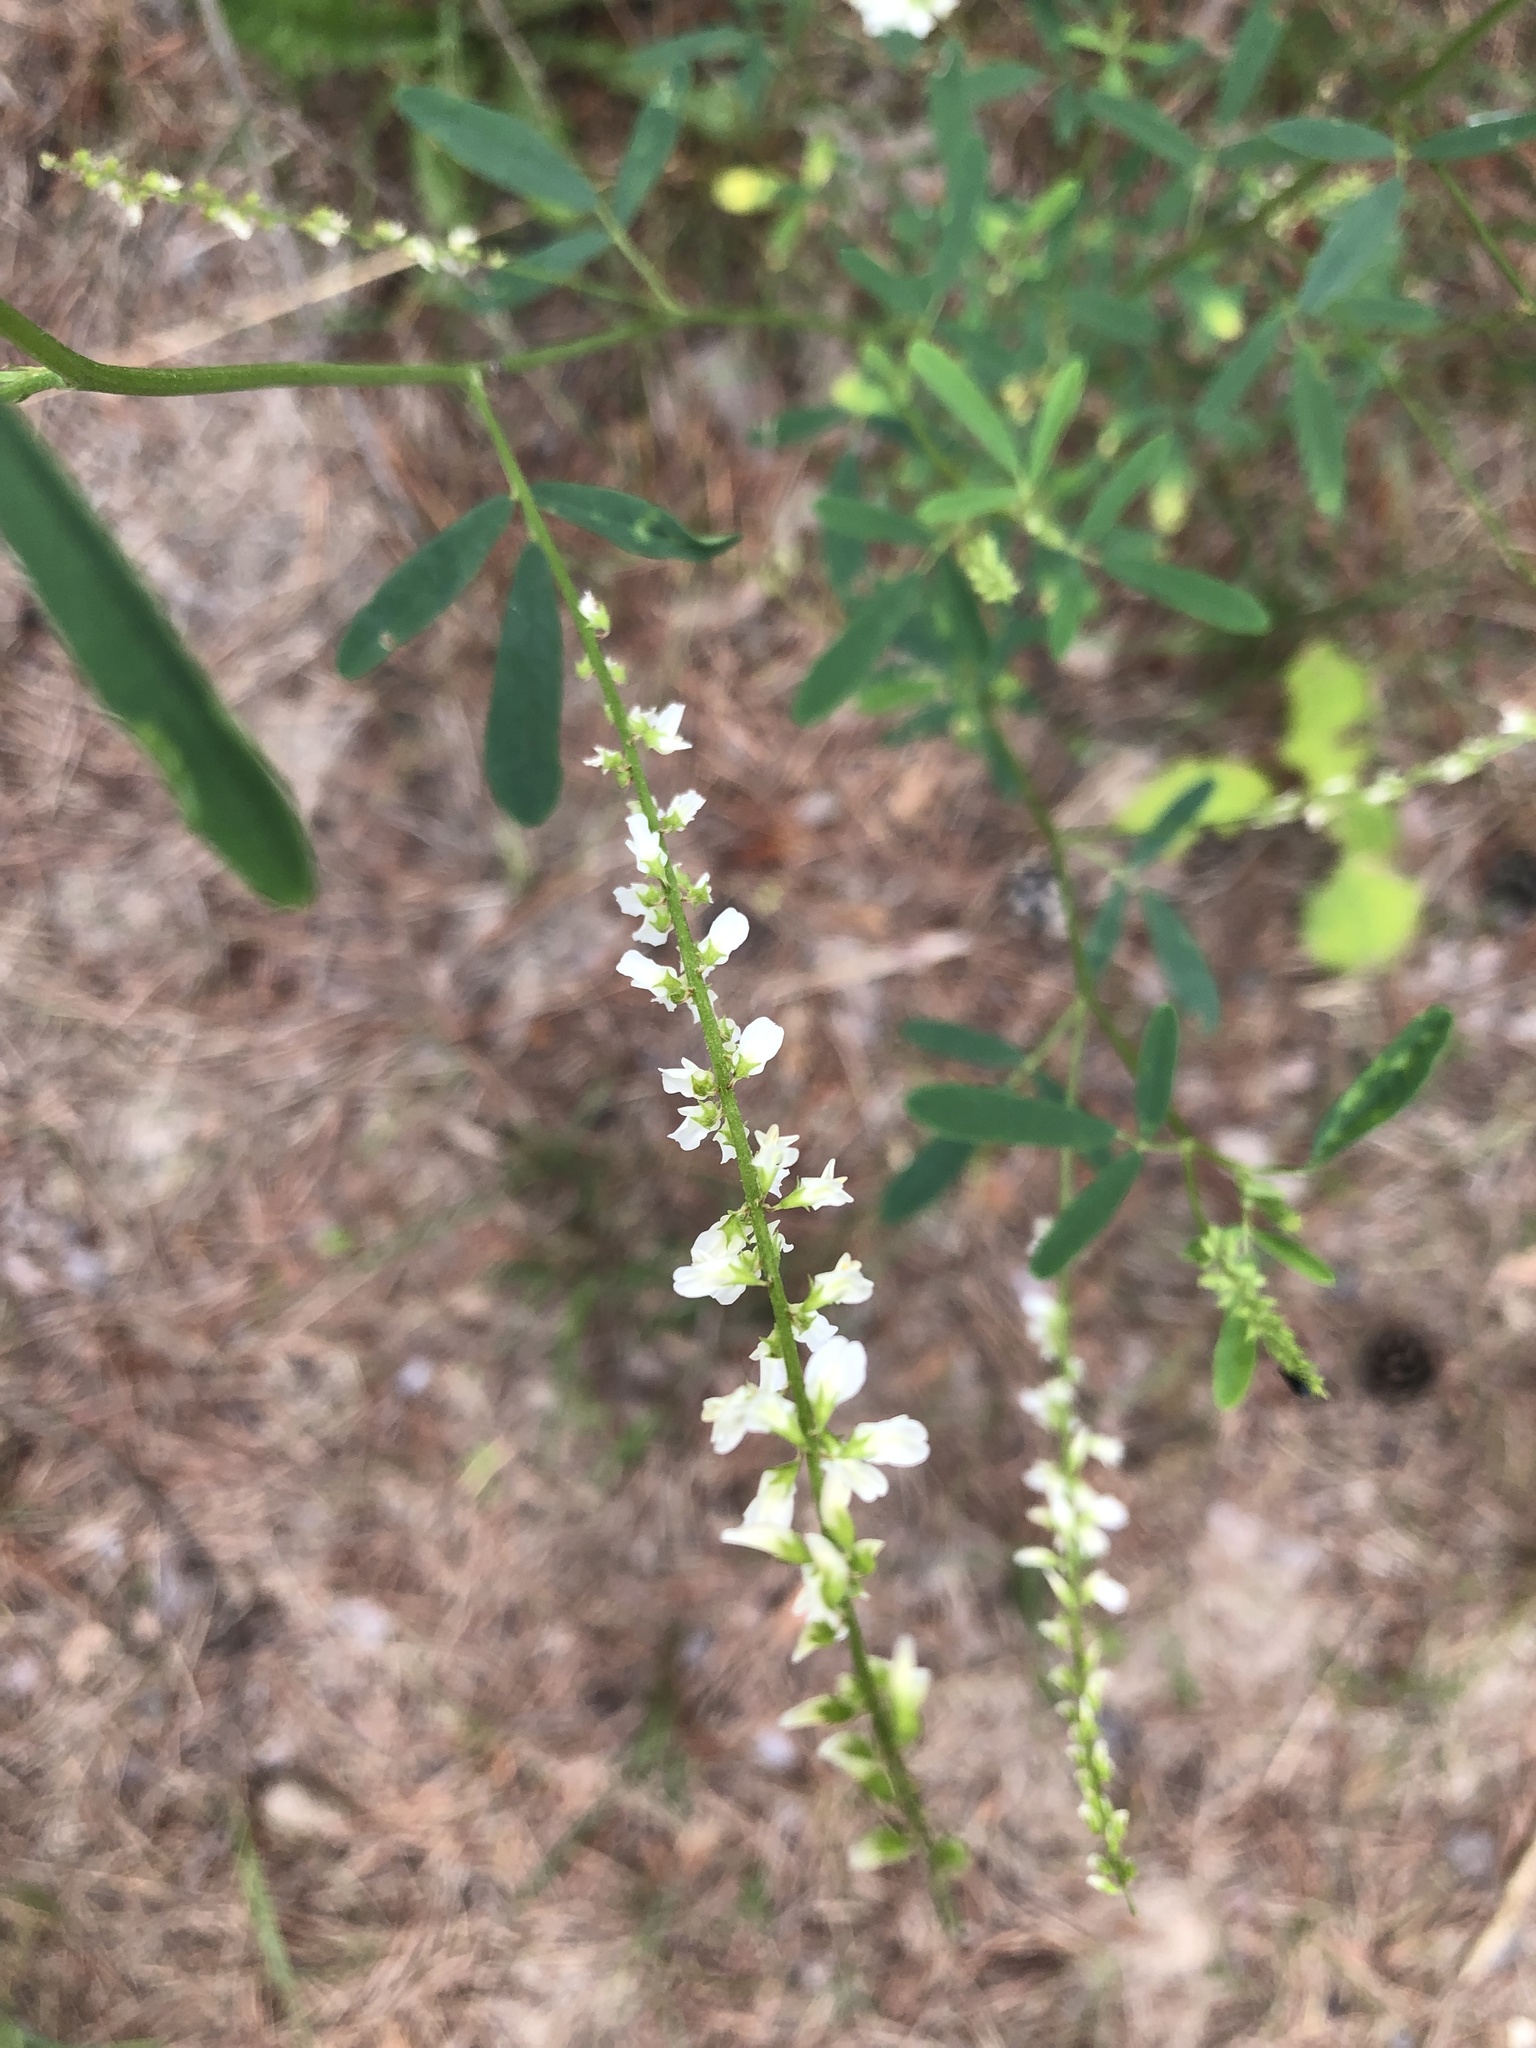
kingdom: Plantae
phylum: Tracheophyta
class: Magnoliopsida
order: Fabales
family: Fabaceae
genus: Melilotus
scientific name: Melilotus albus
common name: White melilot
